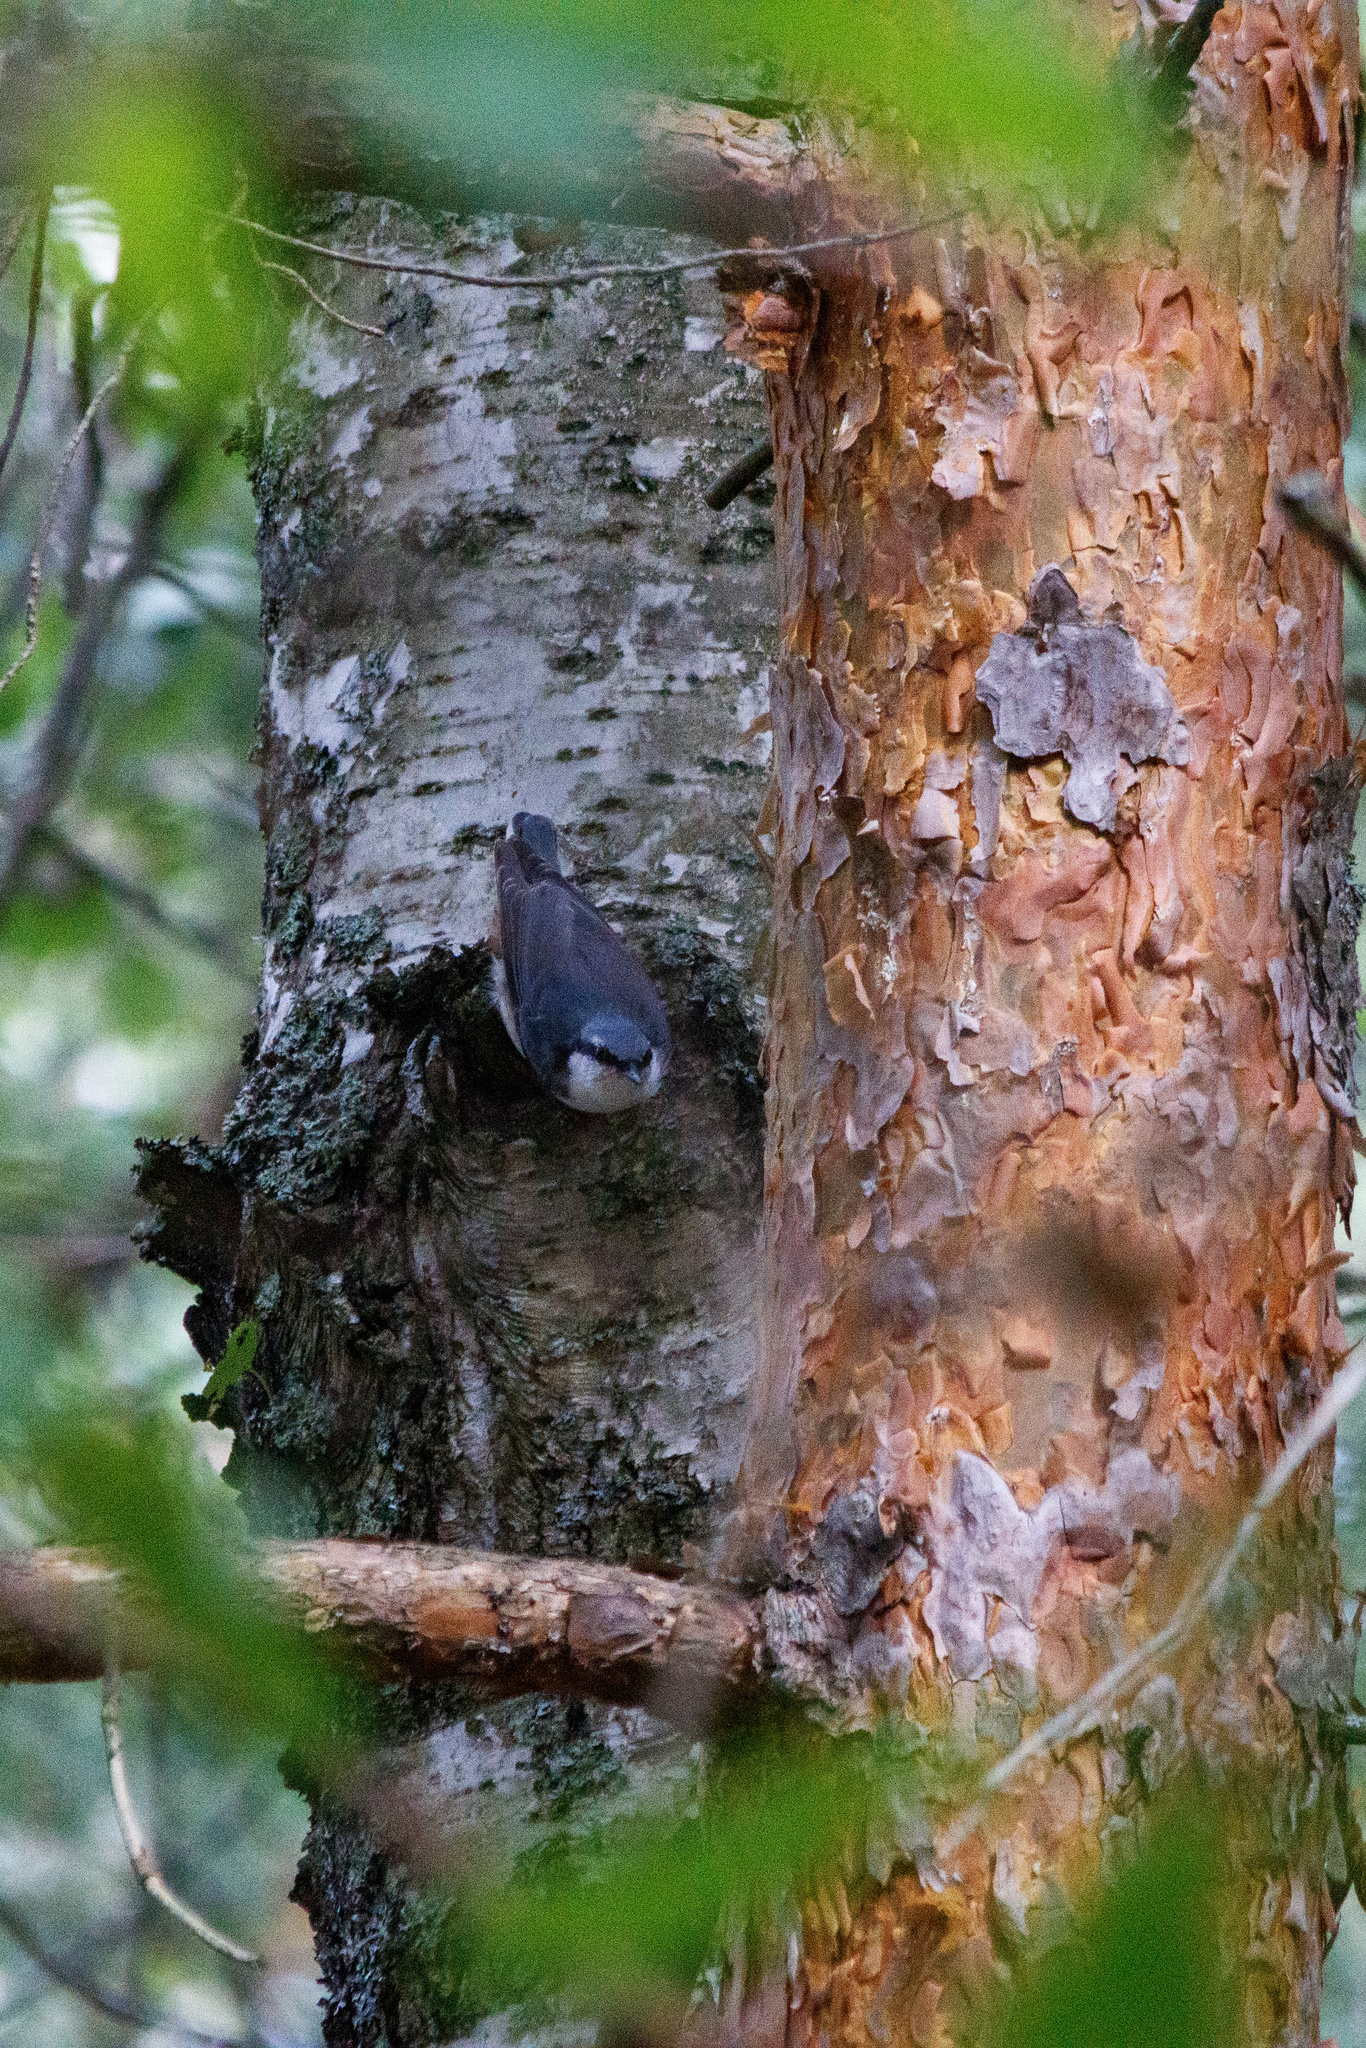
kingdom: Animalia
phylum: Chordata
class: Aves
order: Passeriformes
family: Sittidae
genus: Sitta
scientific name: Sitta europaea
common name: Eurasian nuthatch
